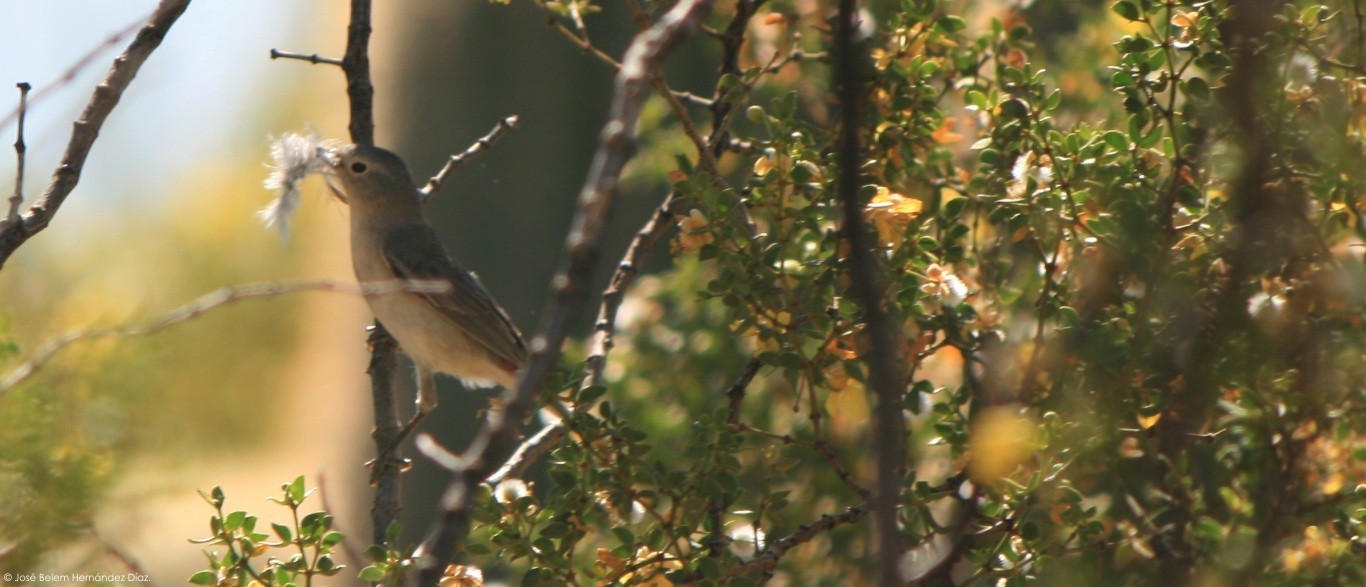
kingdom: Animalia
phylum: Chordata
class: Aves
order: Passeriformes
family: Parulidae
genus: Leiothlypis
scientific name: Leiothlypis luciae
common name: Lucy's warbler
